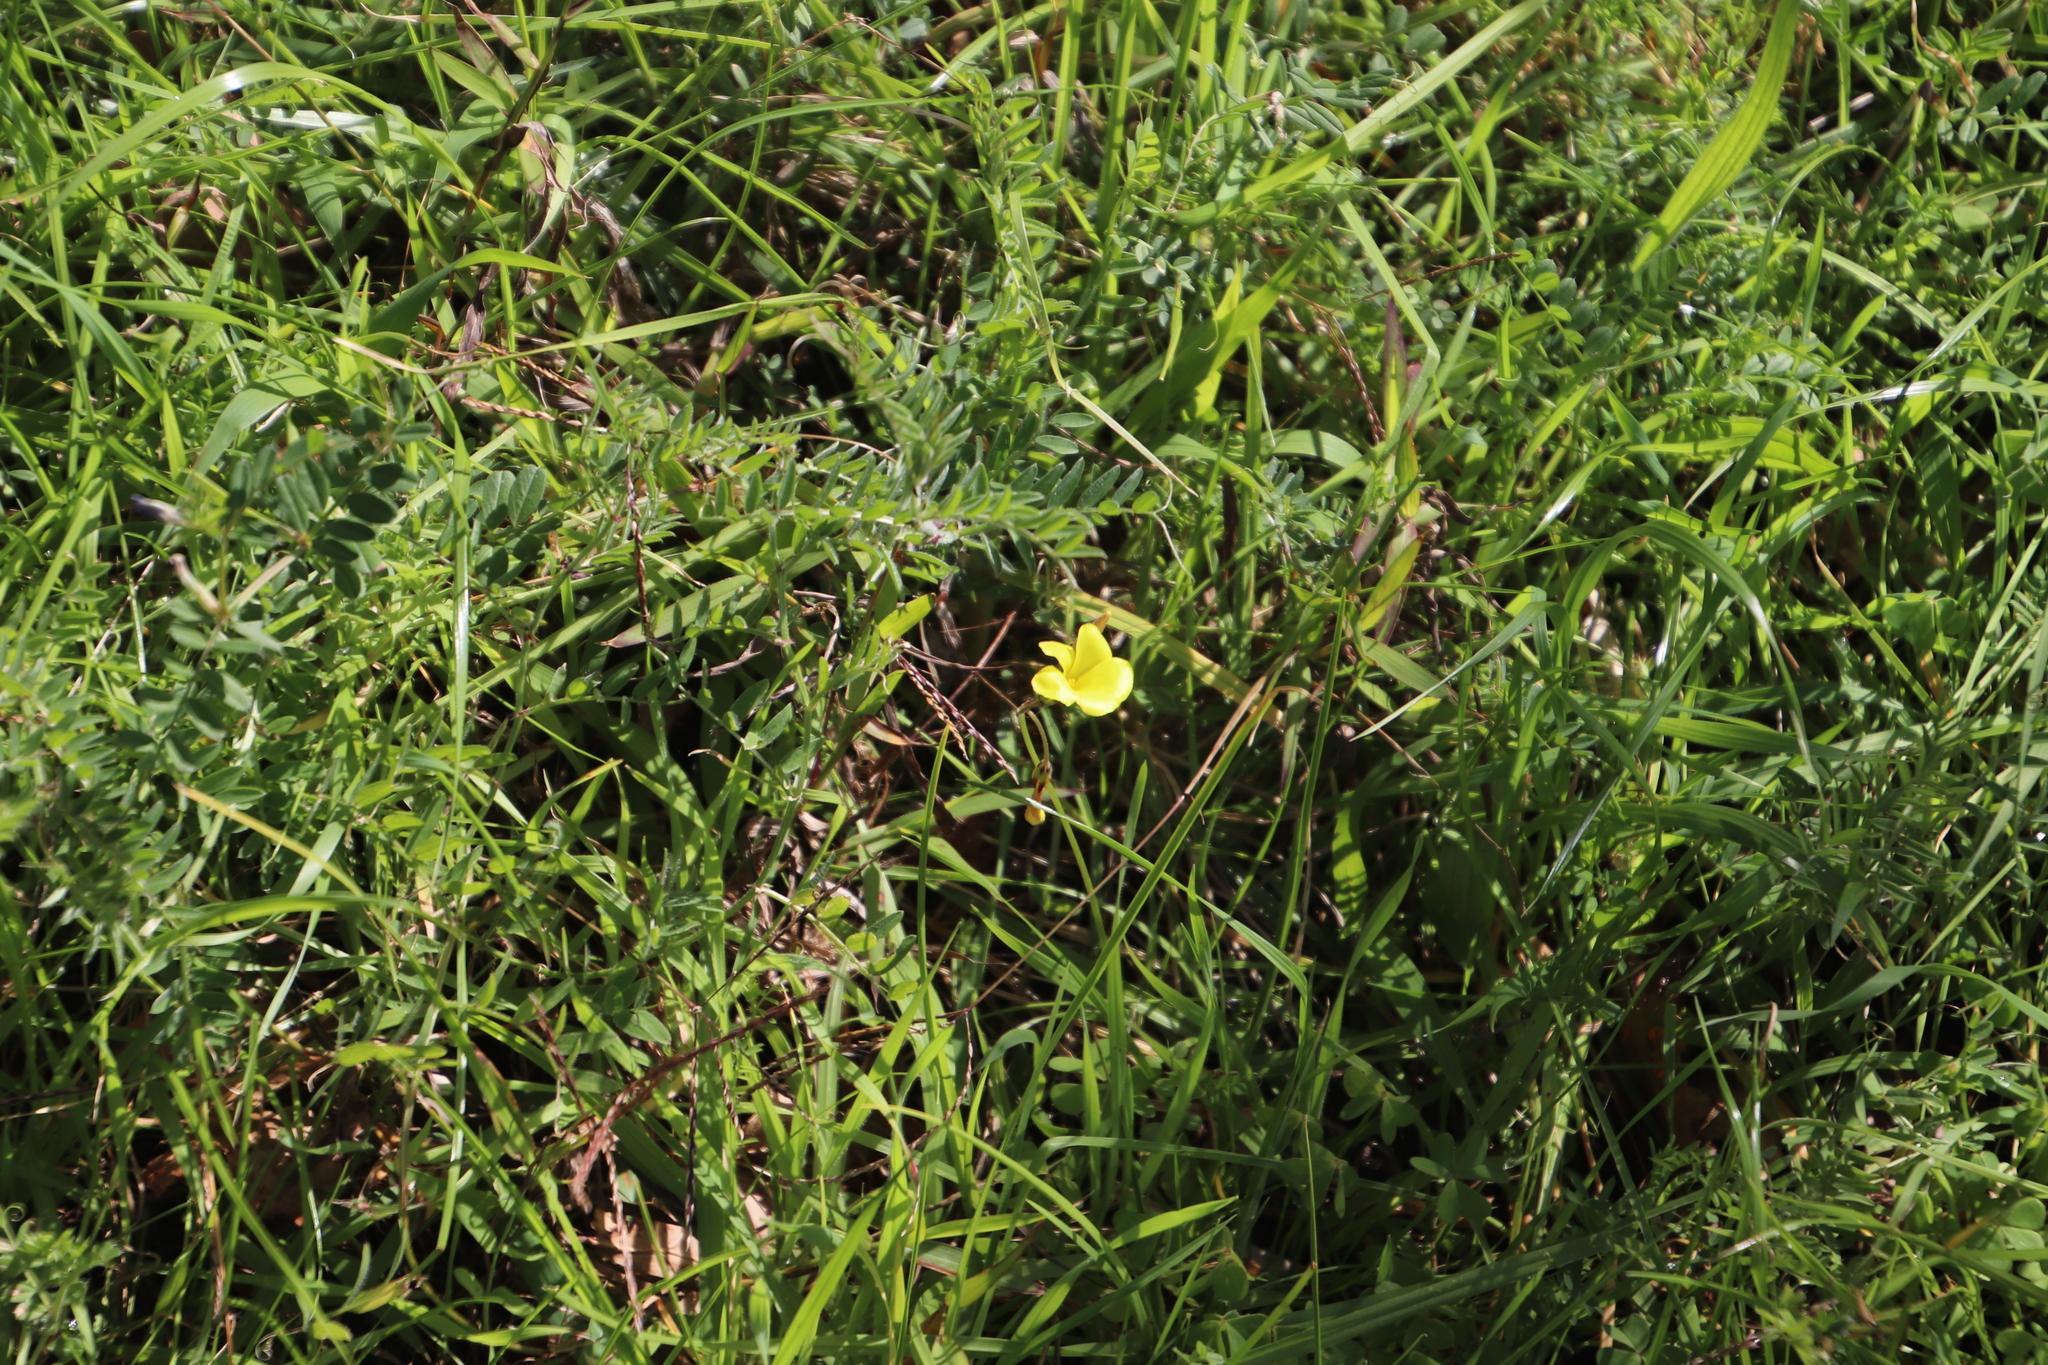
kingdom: Plantae
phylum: Tracheophyta
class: Magnoliopsida
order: Oxalidales
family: Oxalidaceae
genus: Oxalis
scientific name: Oxalis pes-caprae
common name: Bermuda-buttercup
